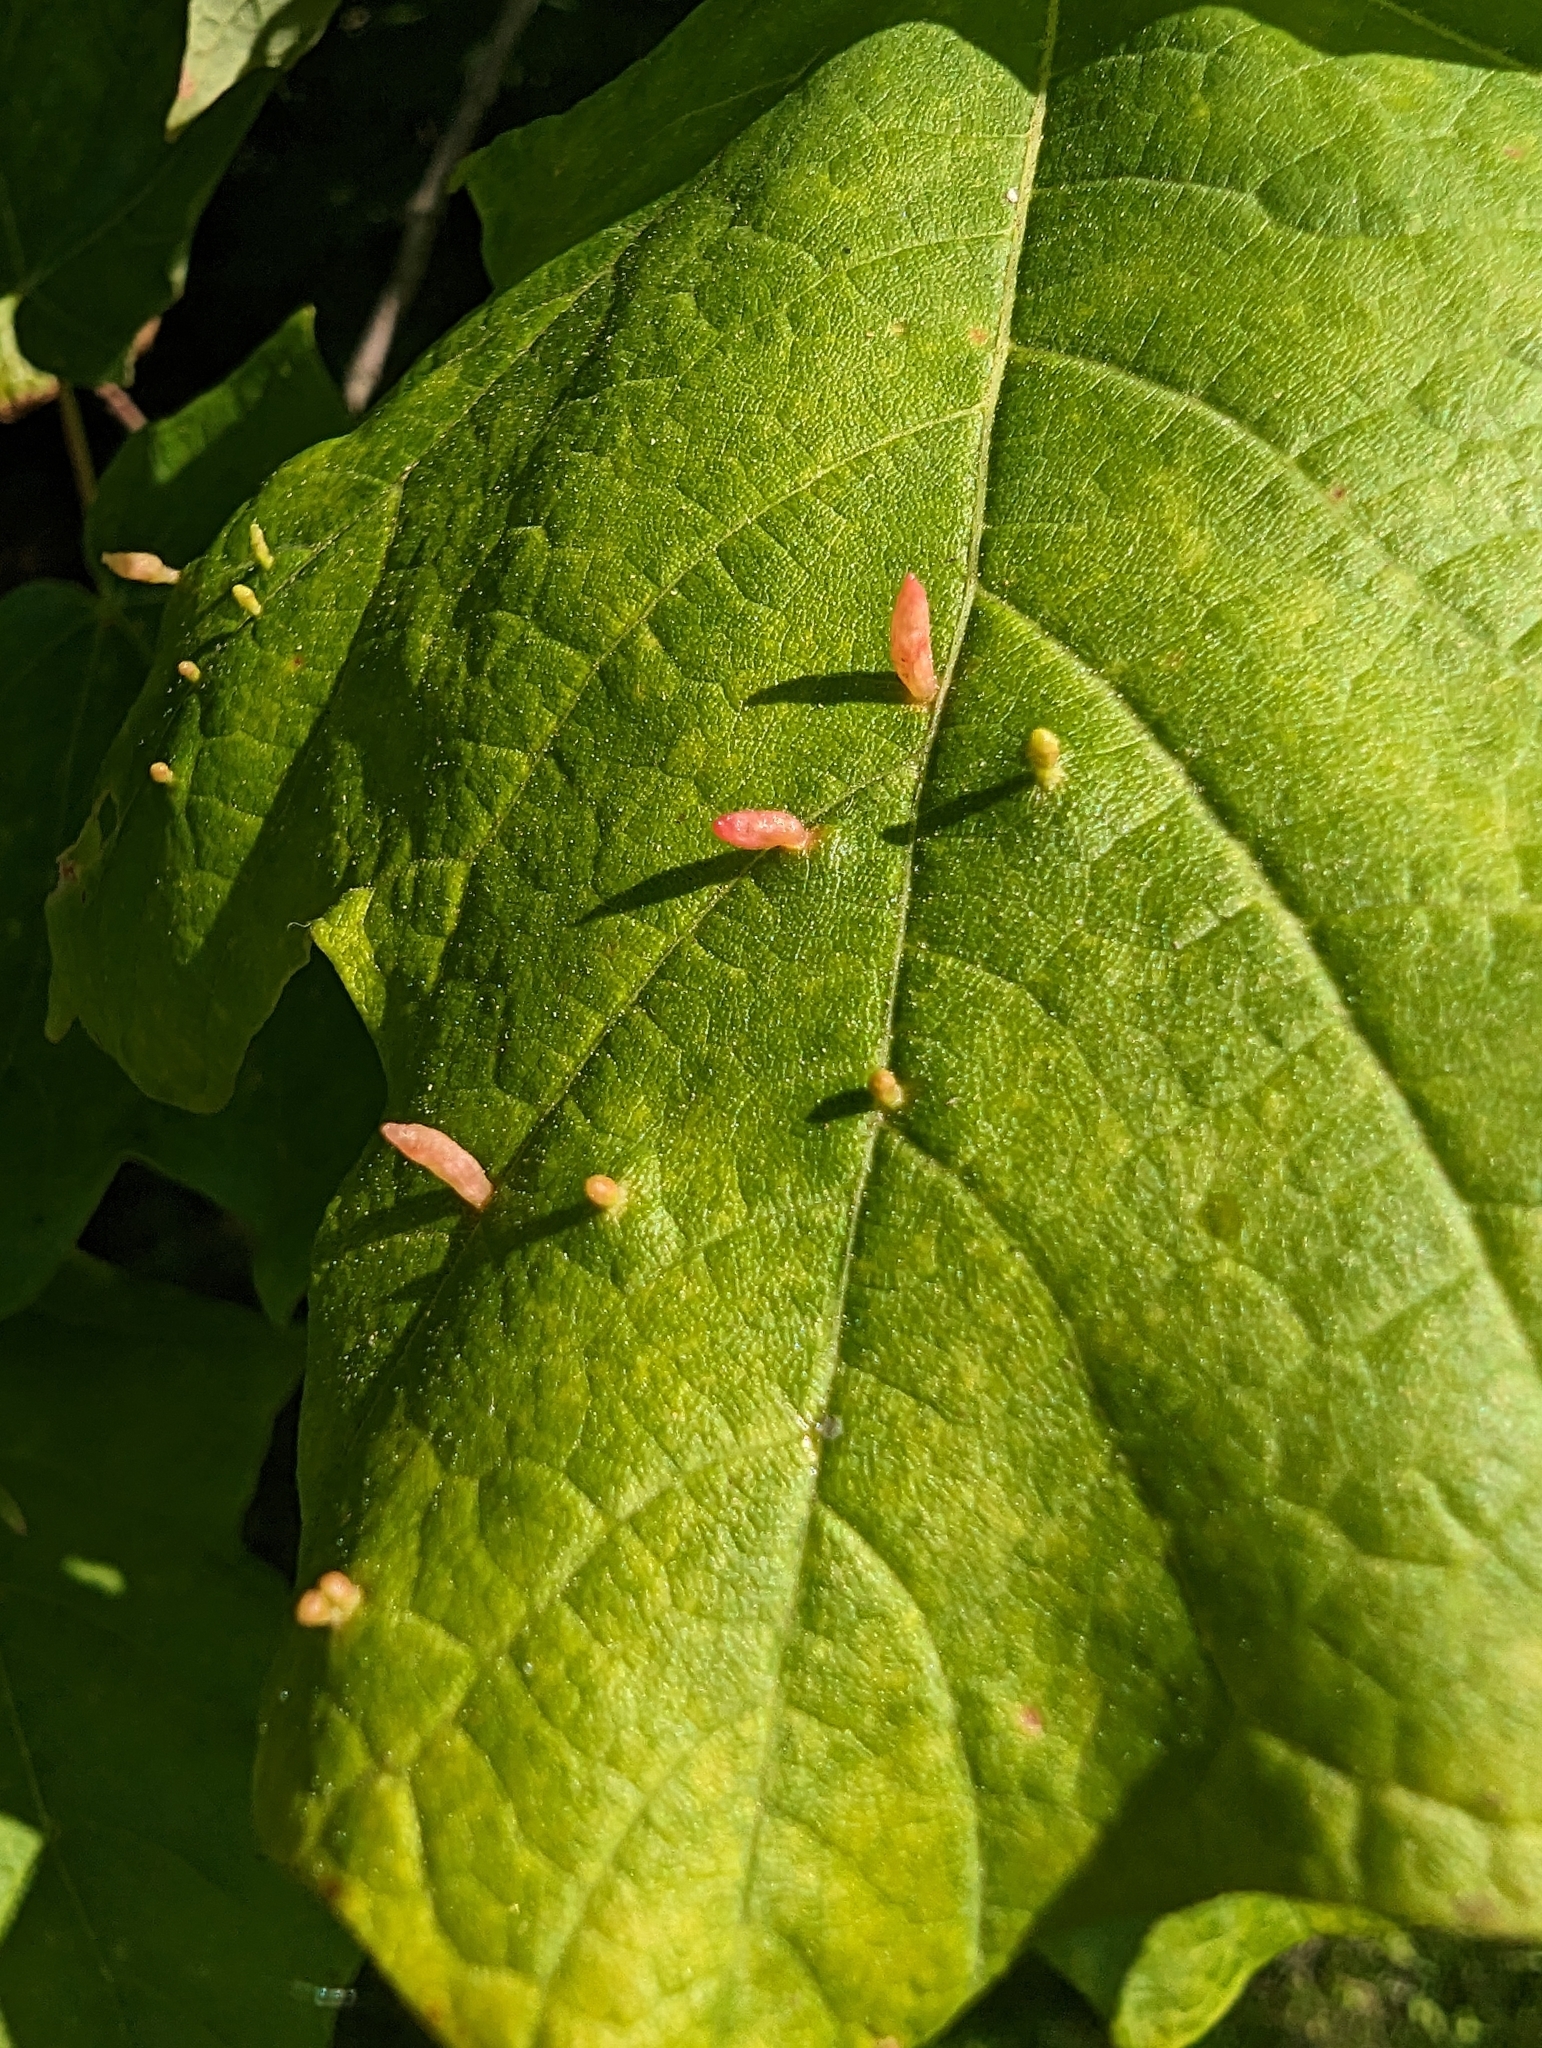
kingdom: Animalia
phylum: Arthropoda
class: Arachnida
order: Trombidiformes
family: Eriophyidae
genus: Vasates
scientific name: Vasates aceriscrumena
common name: Maple spindle gall mite
